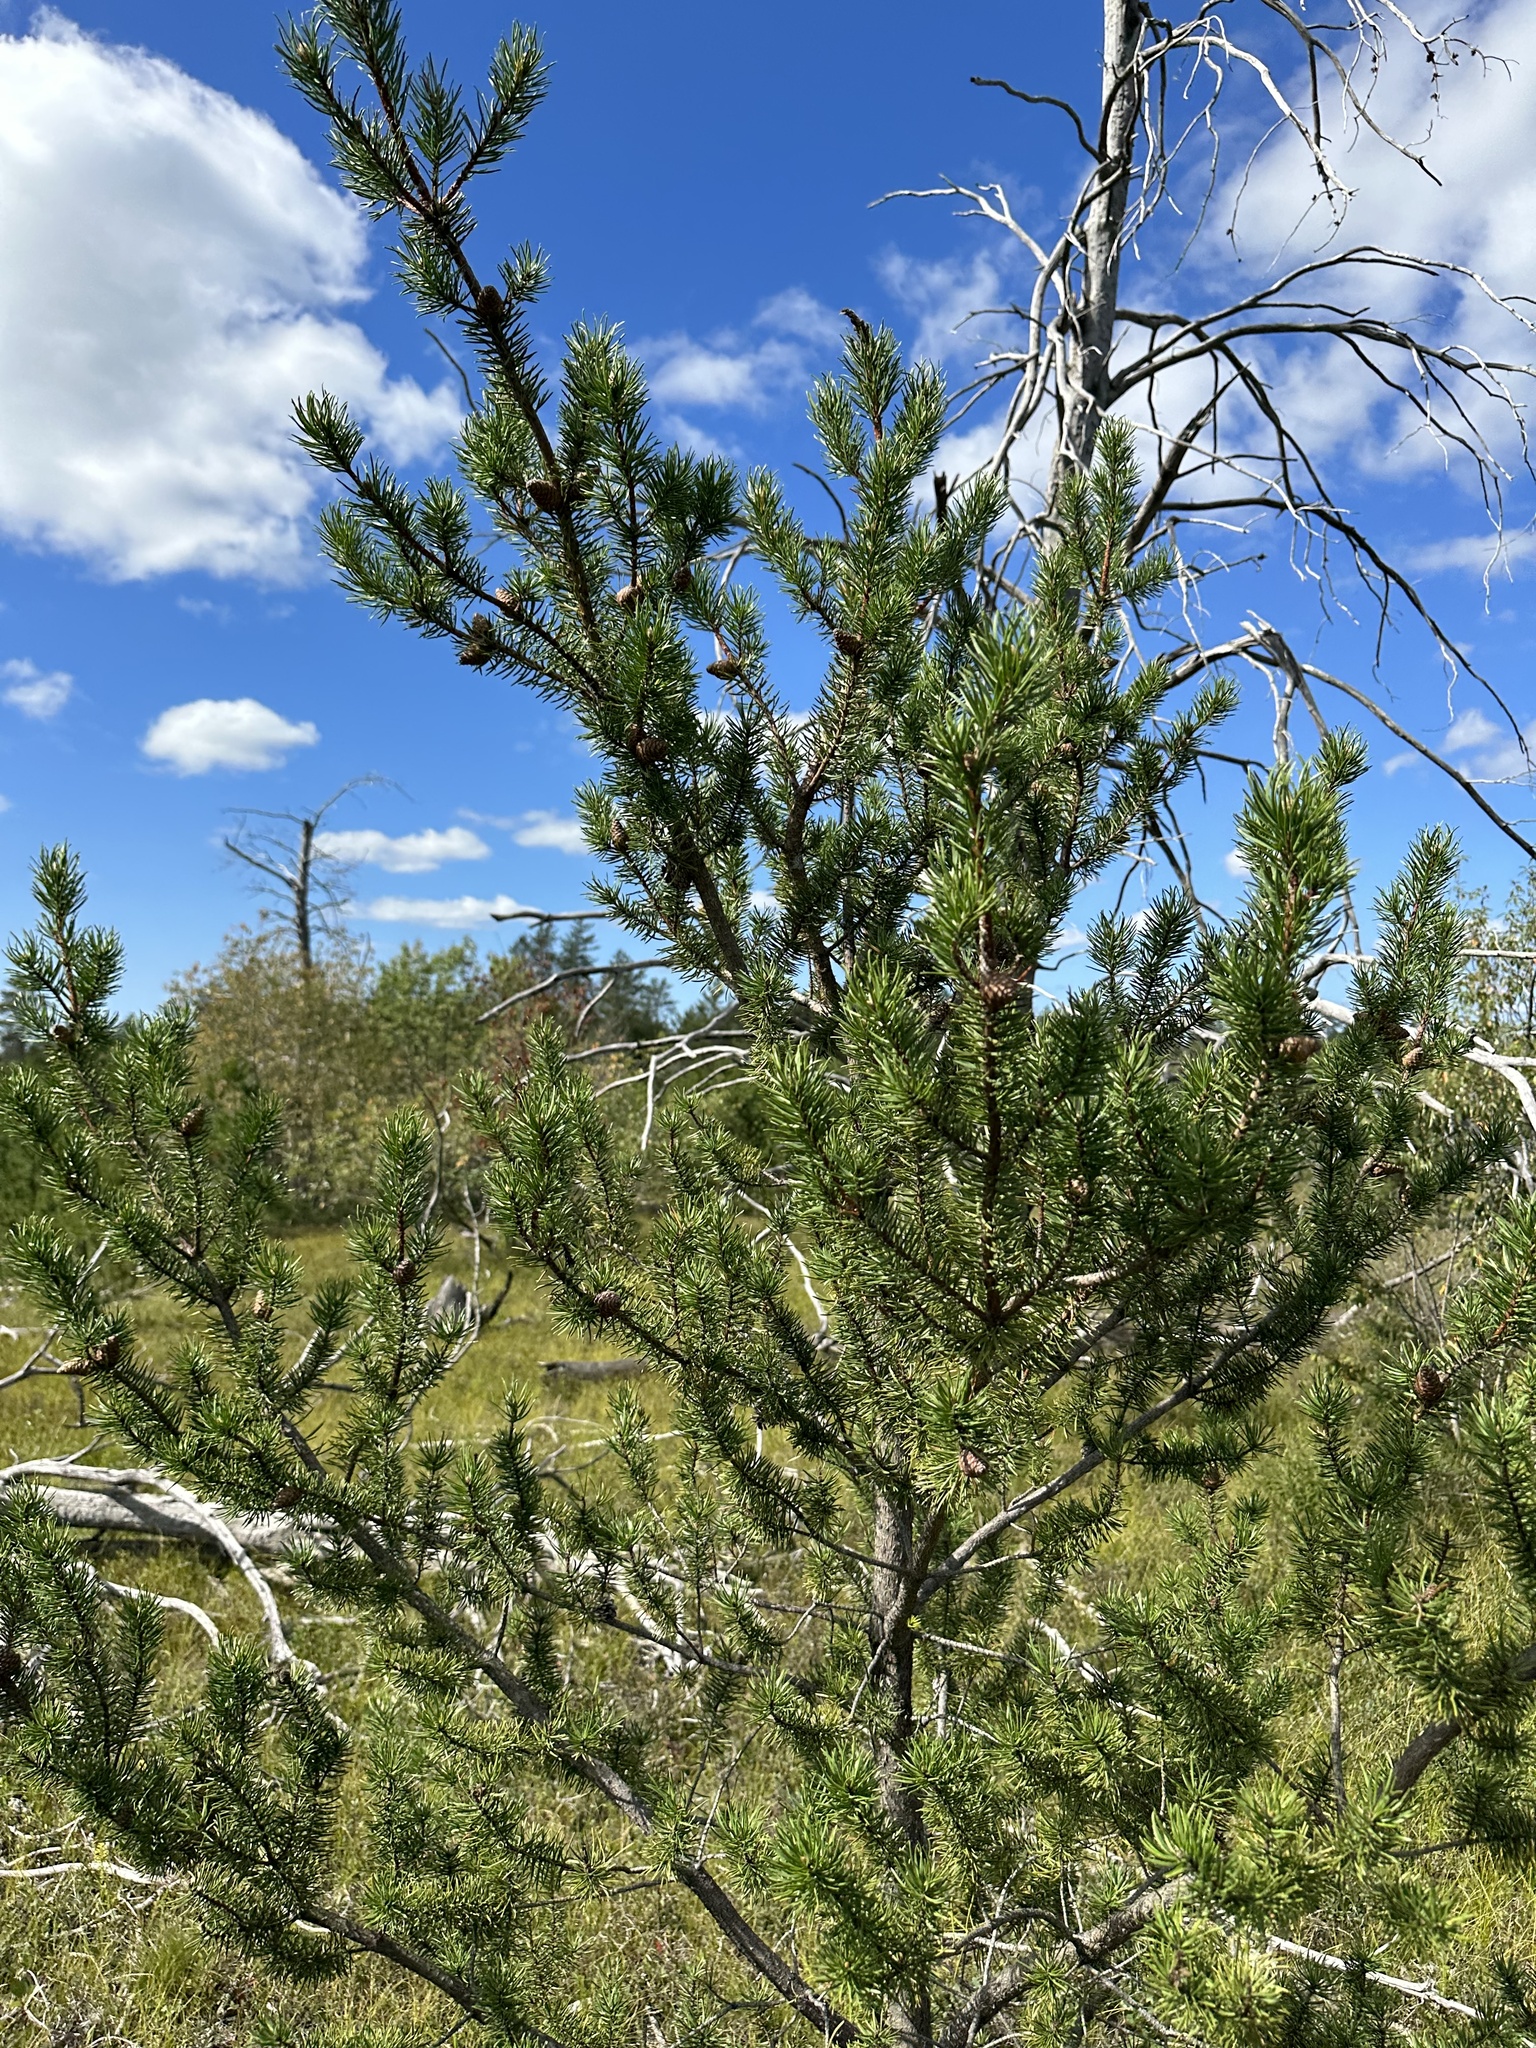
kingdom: Plantae
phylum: Tracheophyta
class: Pinopsida
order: Pinales
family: Pinaceae
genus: Pinus
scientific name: Pinus banksiana
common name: Jack pine
